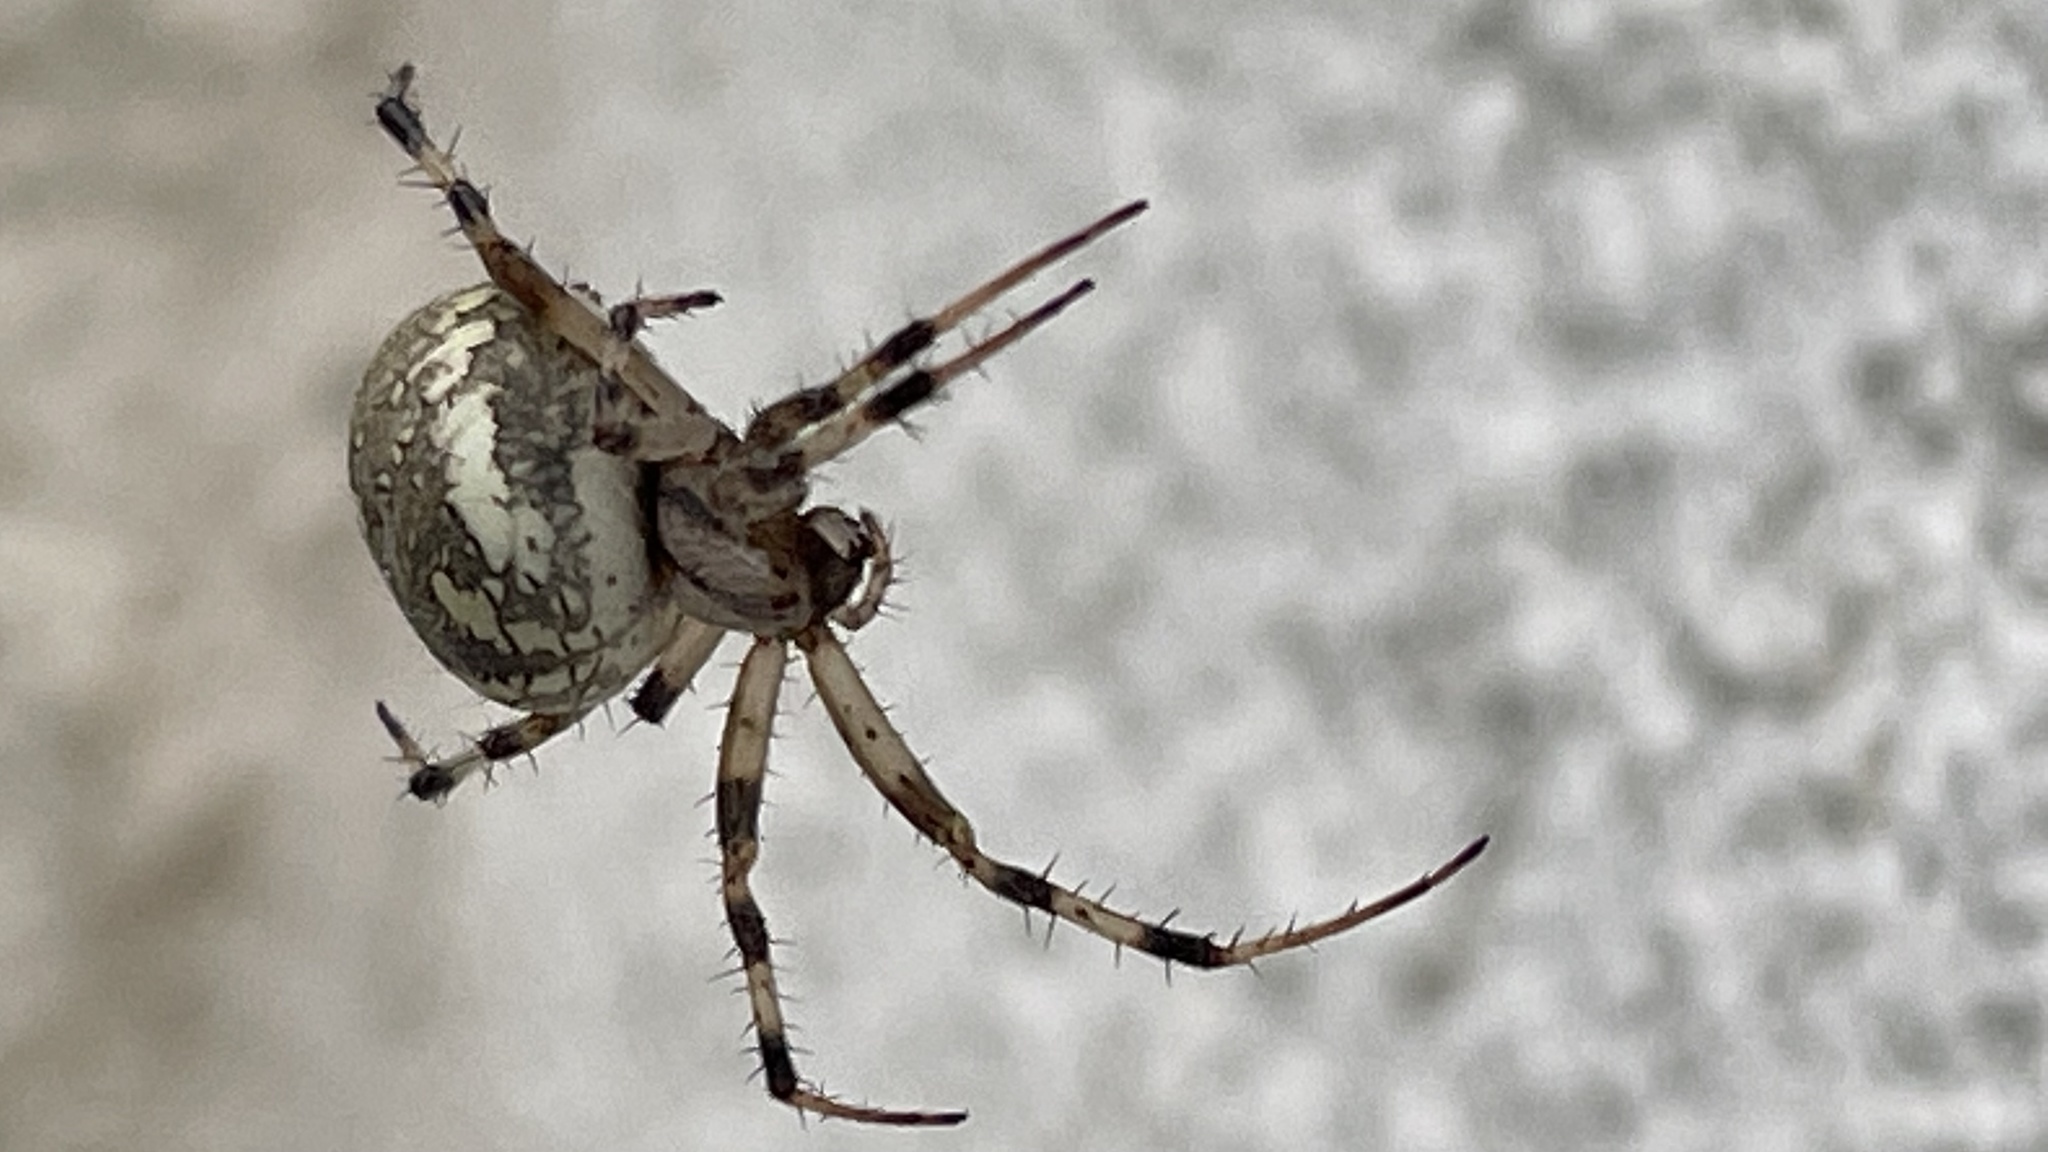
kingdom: Animalia
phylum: Arthropoda
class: Arachnida
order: Araneae
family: Araneidae
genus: Neoscona
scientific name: Neoscona oaxacensis
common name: Orb weavers
